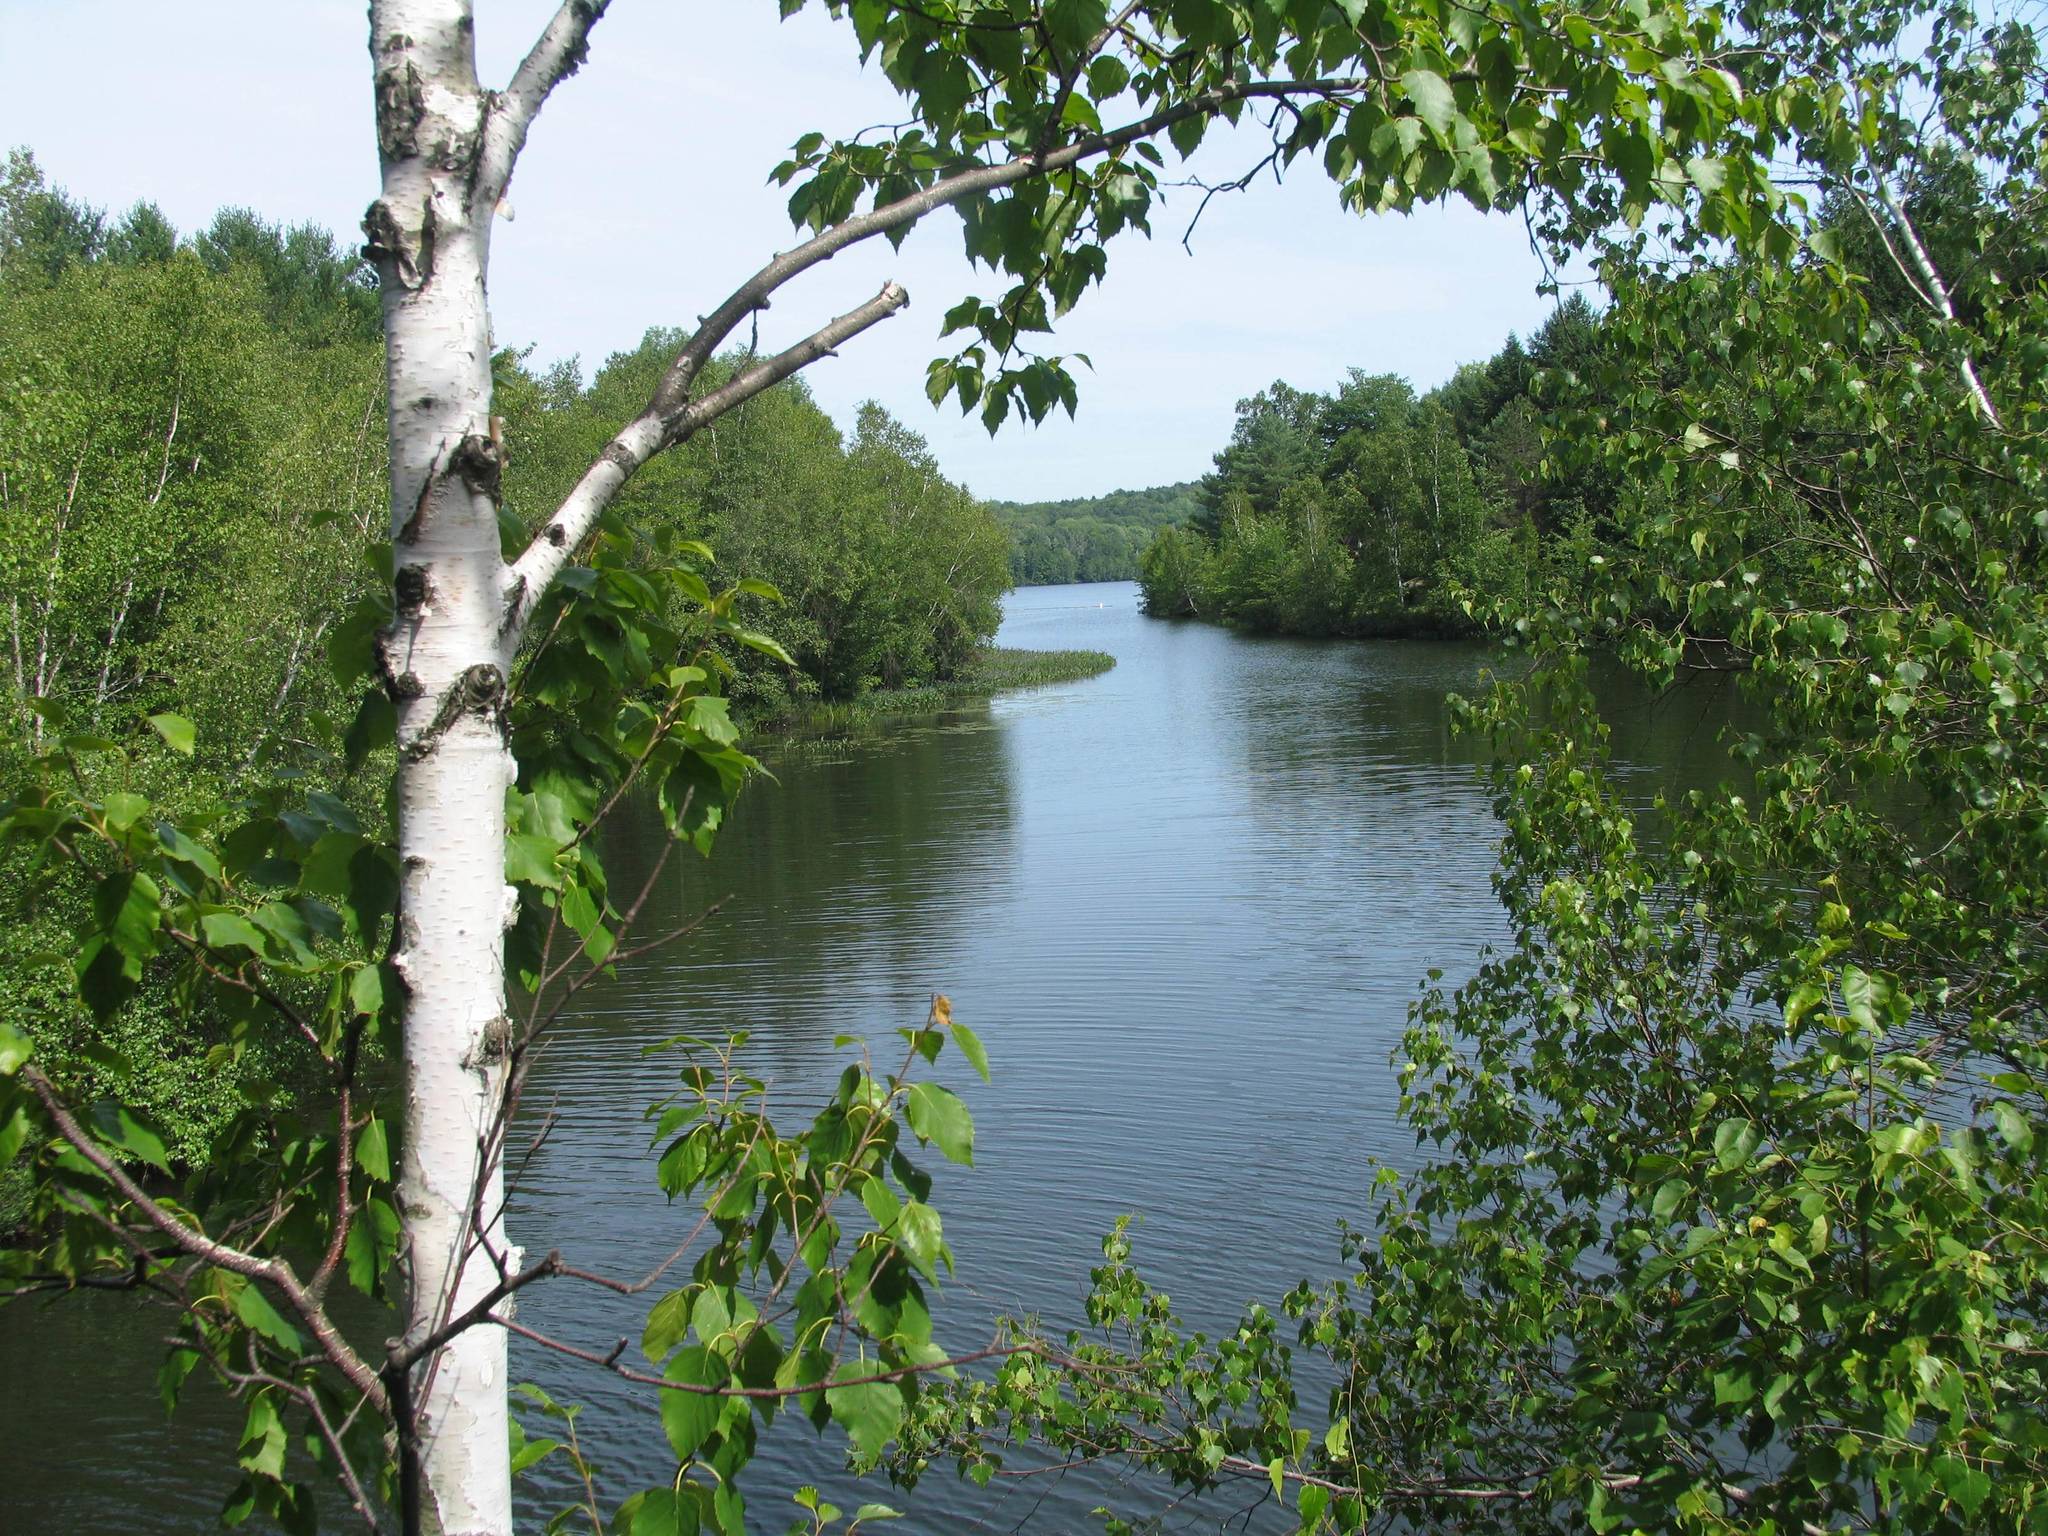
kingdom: Plantae
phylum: Tracheophyta
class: Magnoliopsida
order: Fagales
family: Betulaceae
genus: Betula
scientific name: Betula papyrifera
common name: Paper birch
